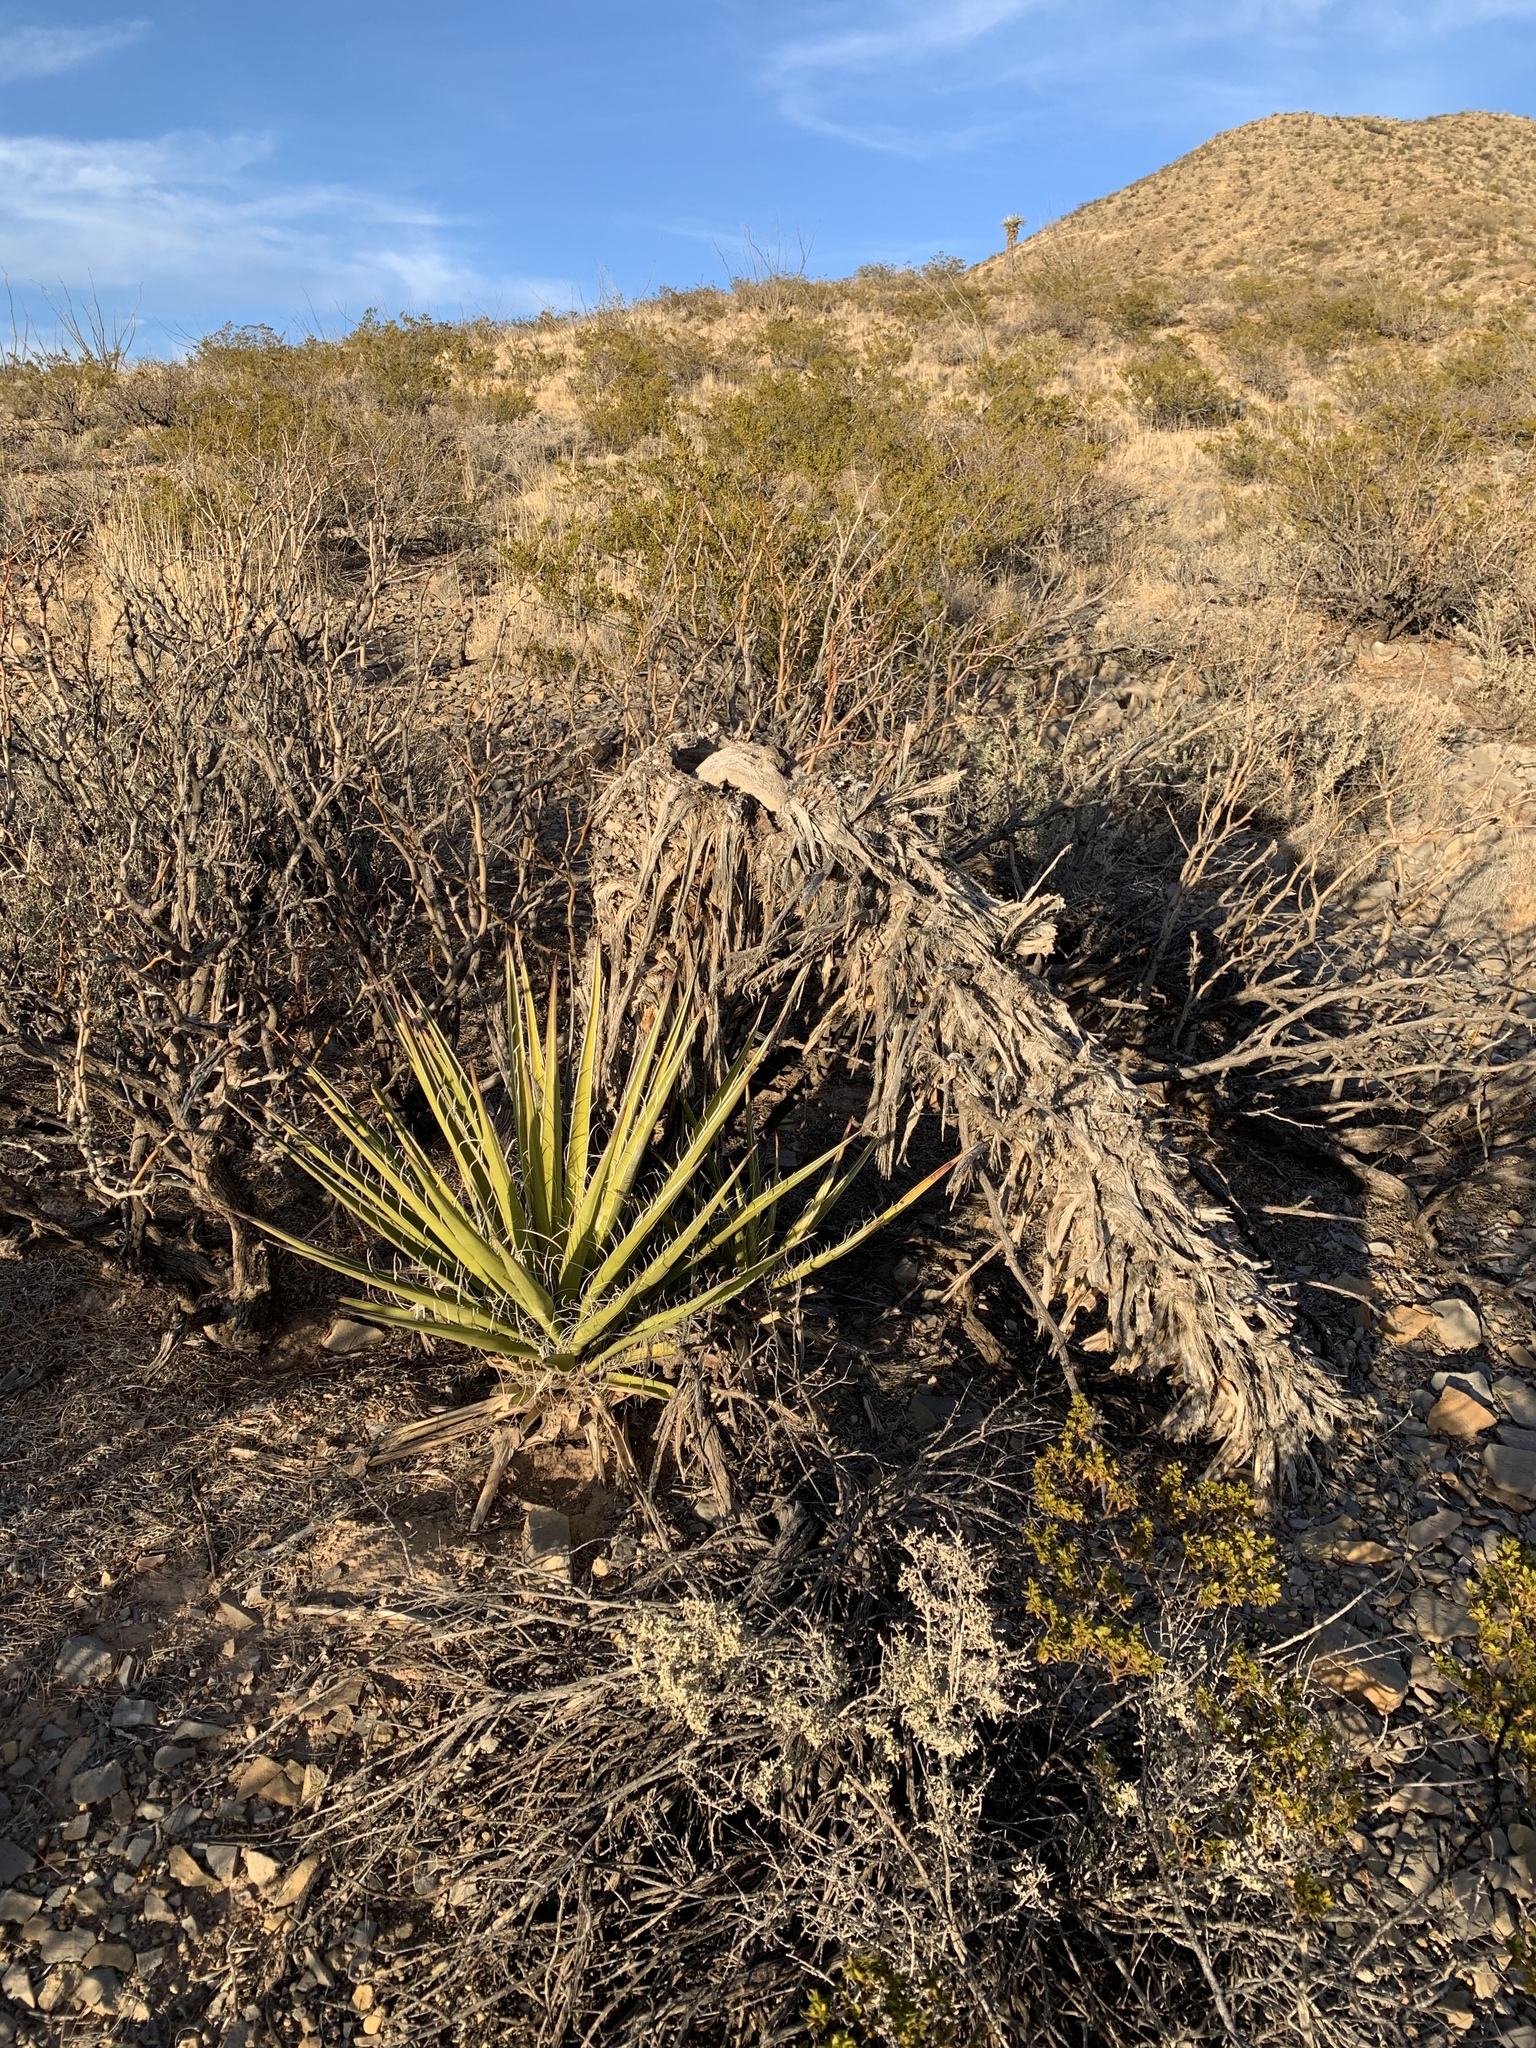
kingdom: Plantae
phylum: Tracheophyta
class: Liliopsida
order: Asparagales
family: Asparagaceae
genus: Yucca
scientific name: Yucca treculiana
